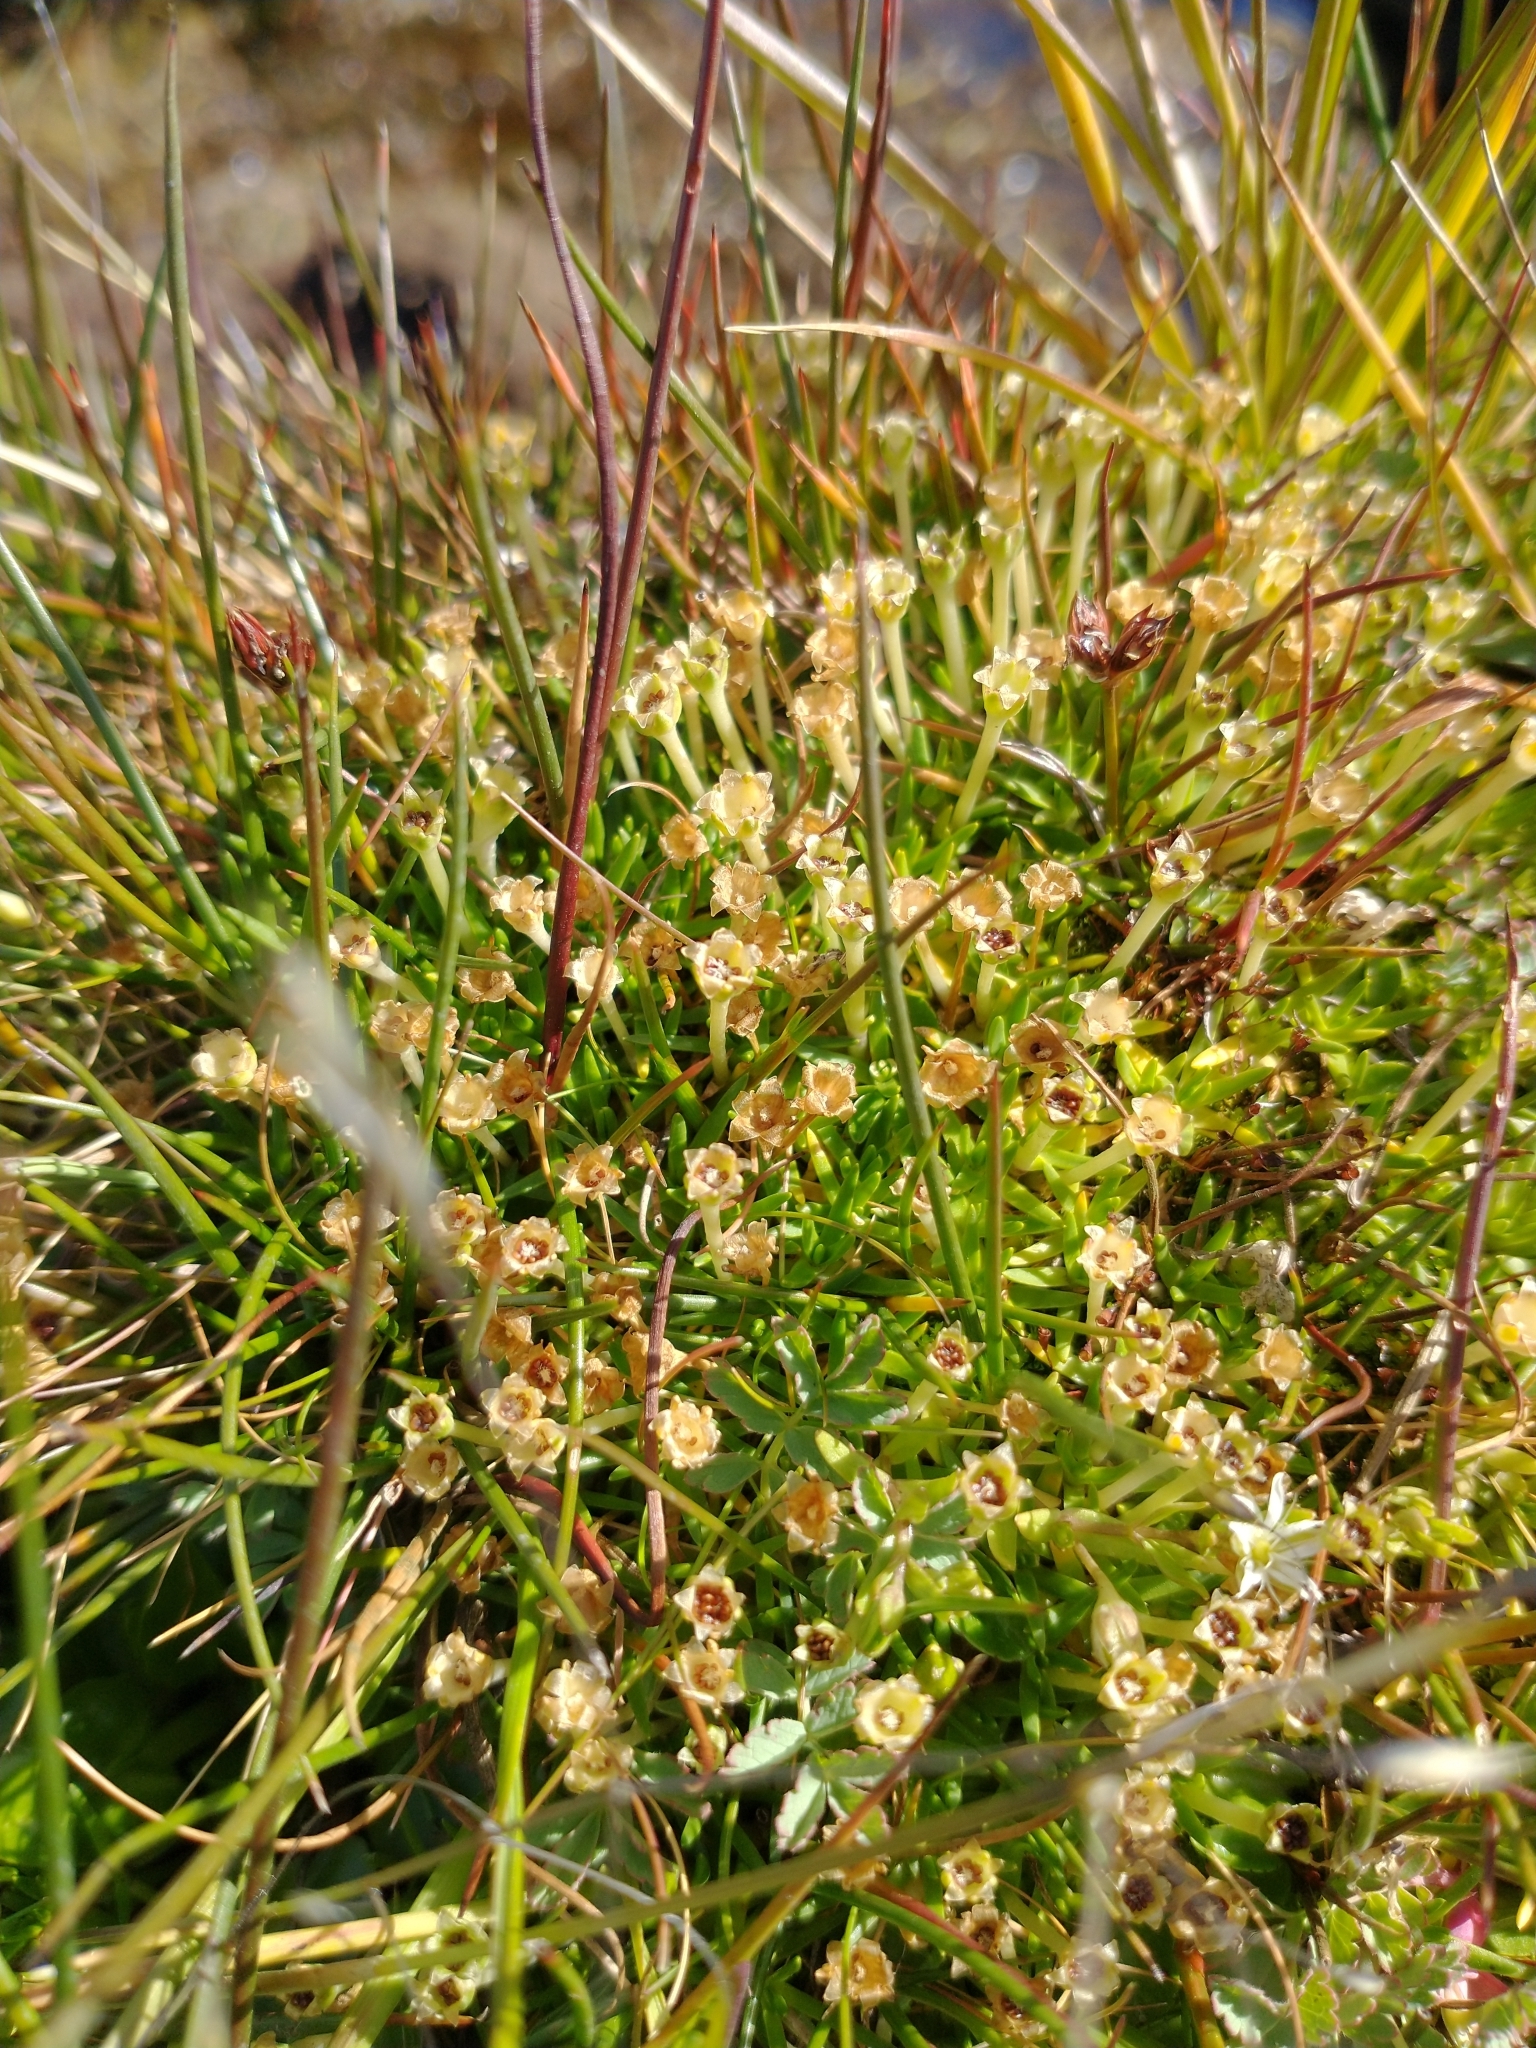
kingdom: Plantae
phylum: Tracheophyta
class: Magnoliopsida
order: Caryophyllales
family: Caryophyllaceae
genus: Colobanthus
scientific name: Colobanthus quitensis
